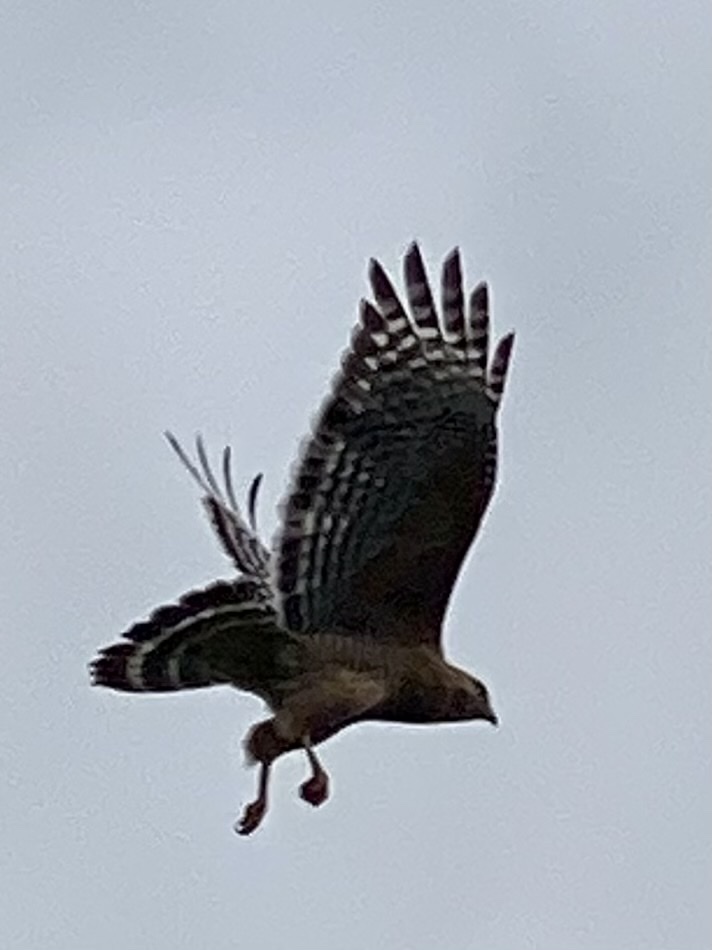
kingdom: Animalia
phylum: Chordata
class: Aves
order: Accipitriformes
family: Accipitridae
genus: Buteo
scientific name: Buteo lineatus
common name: Red-shouldered hawk
